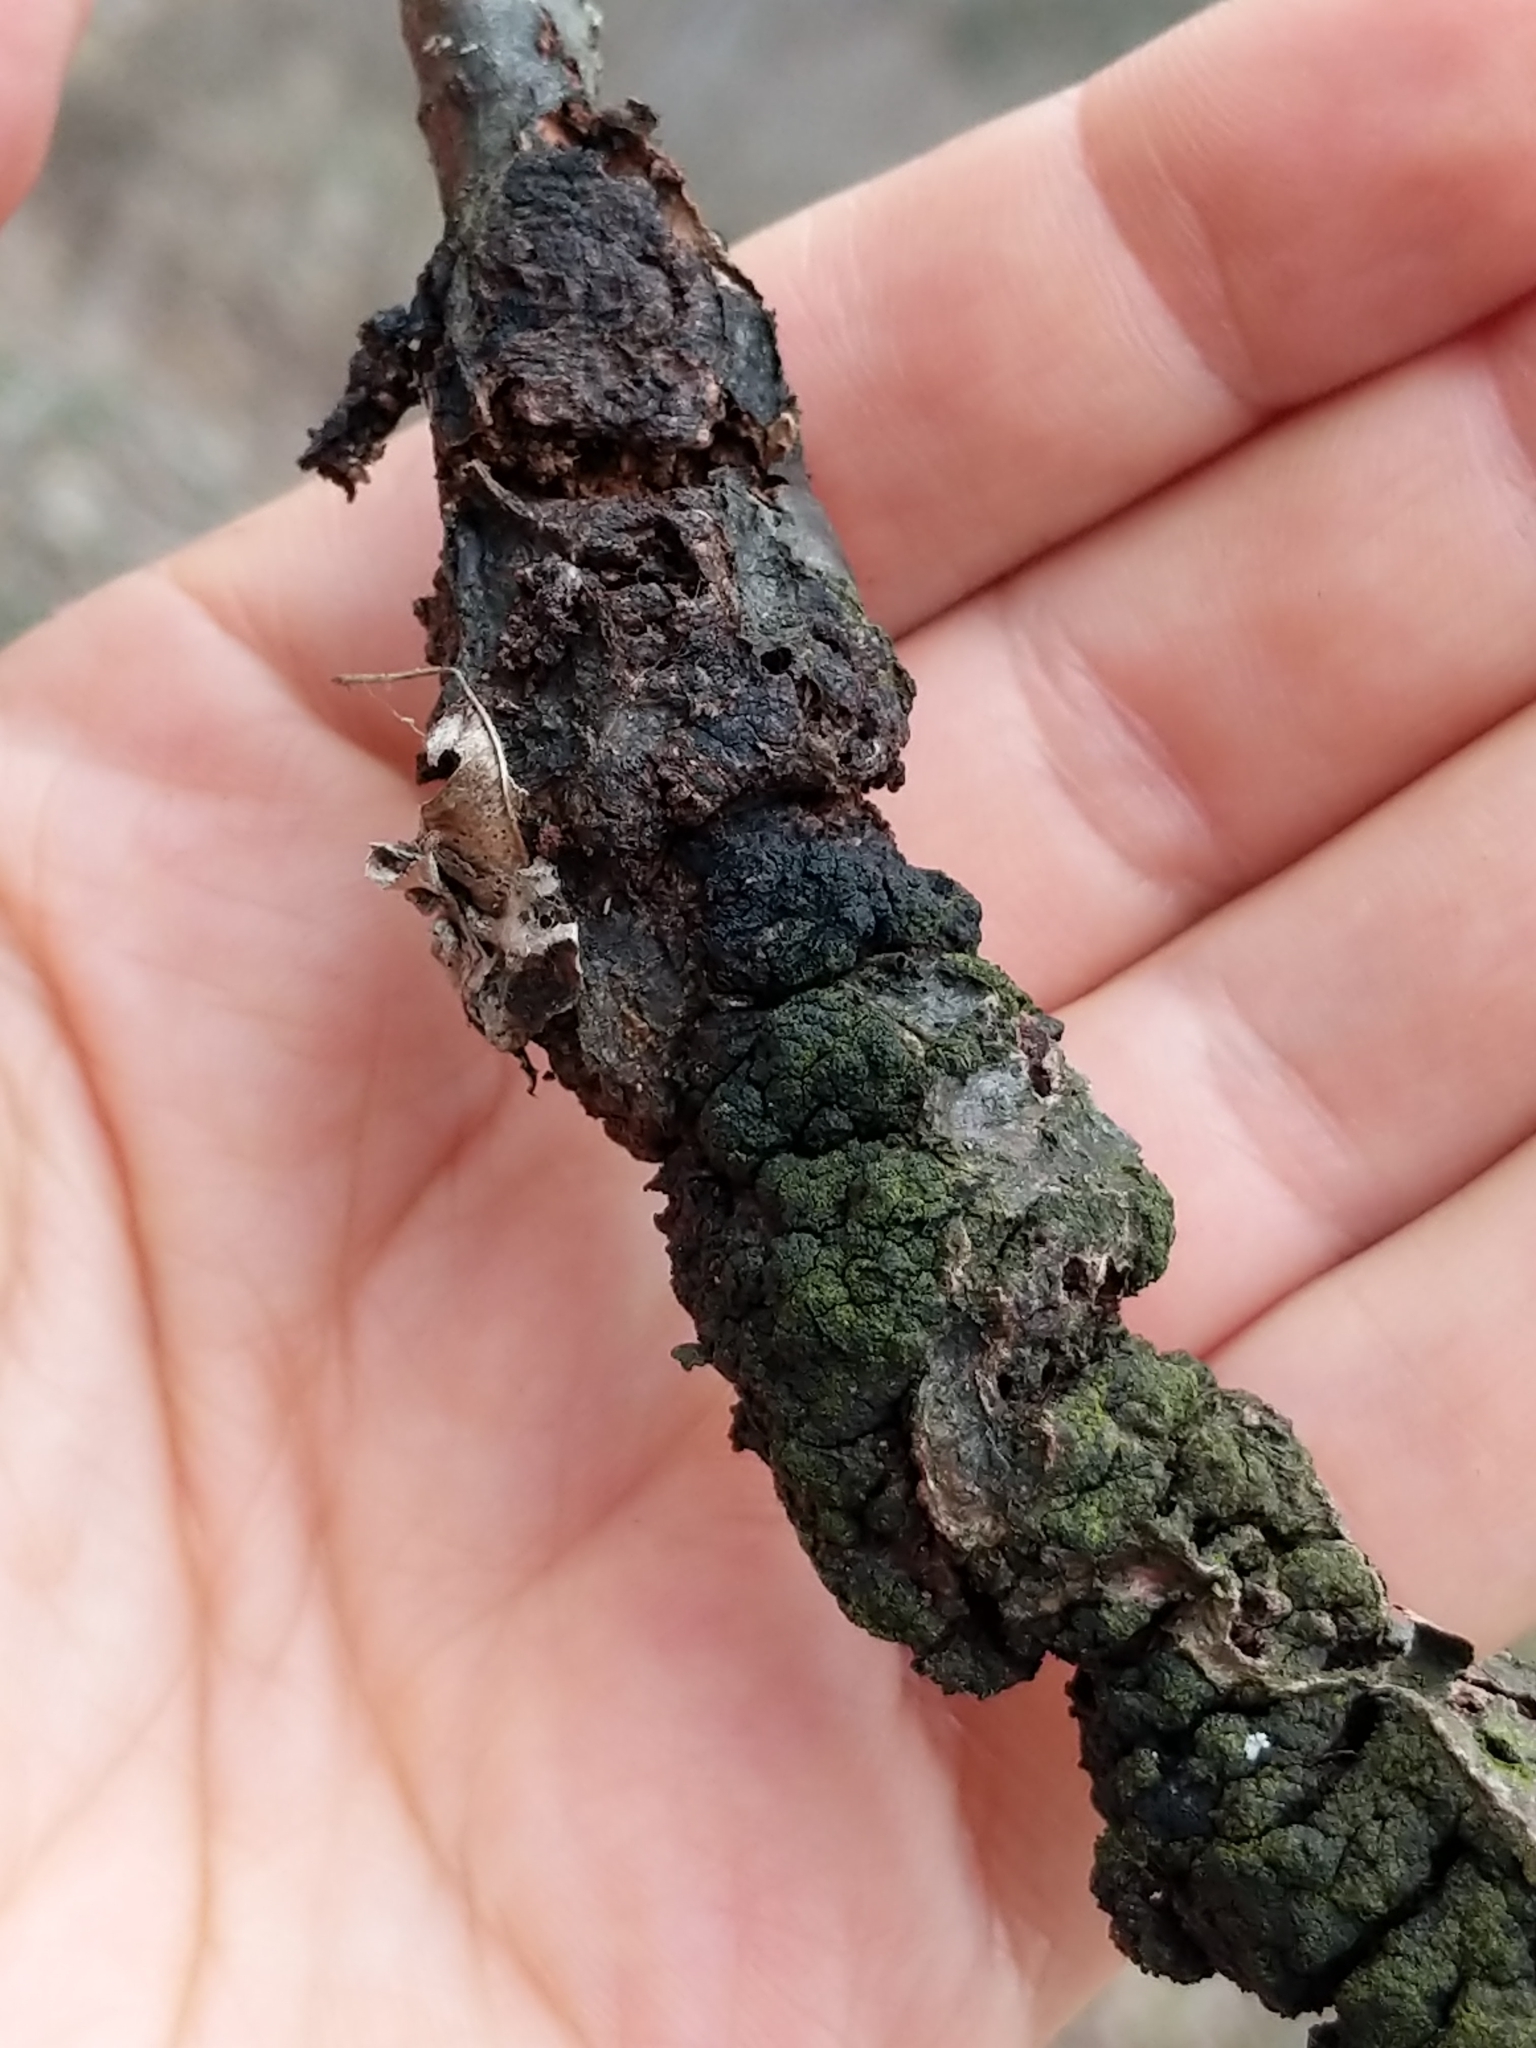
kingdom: Fungi
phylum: Ascomycota
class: Dothideomycetes
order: Venturiales
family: Venturiaceae
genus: Apiosporina
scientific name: Apiosporina morbosa
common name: Black knot
